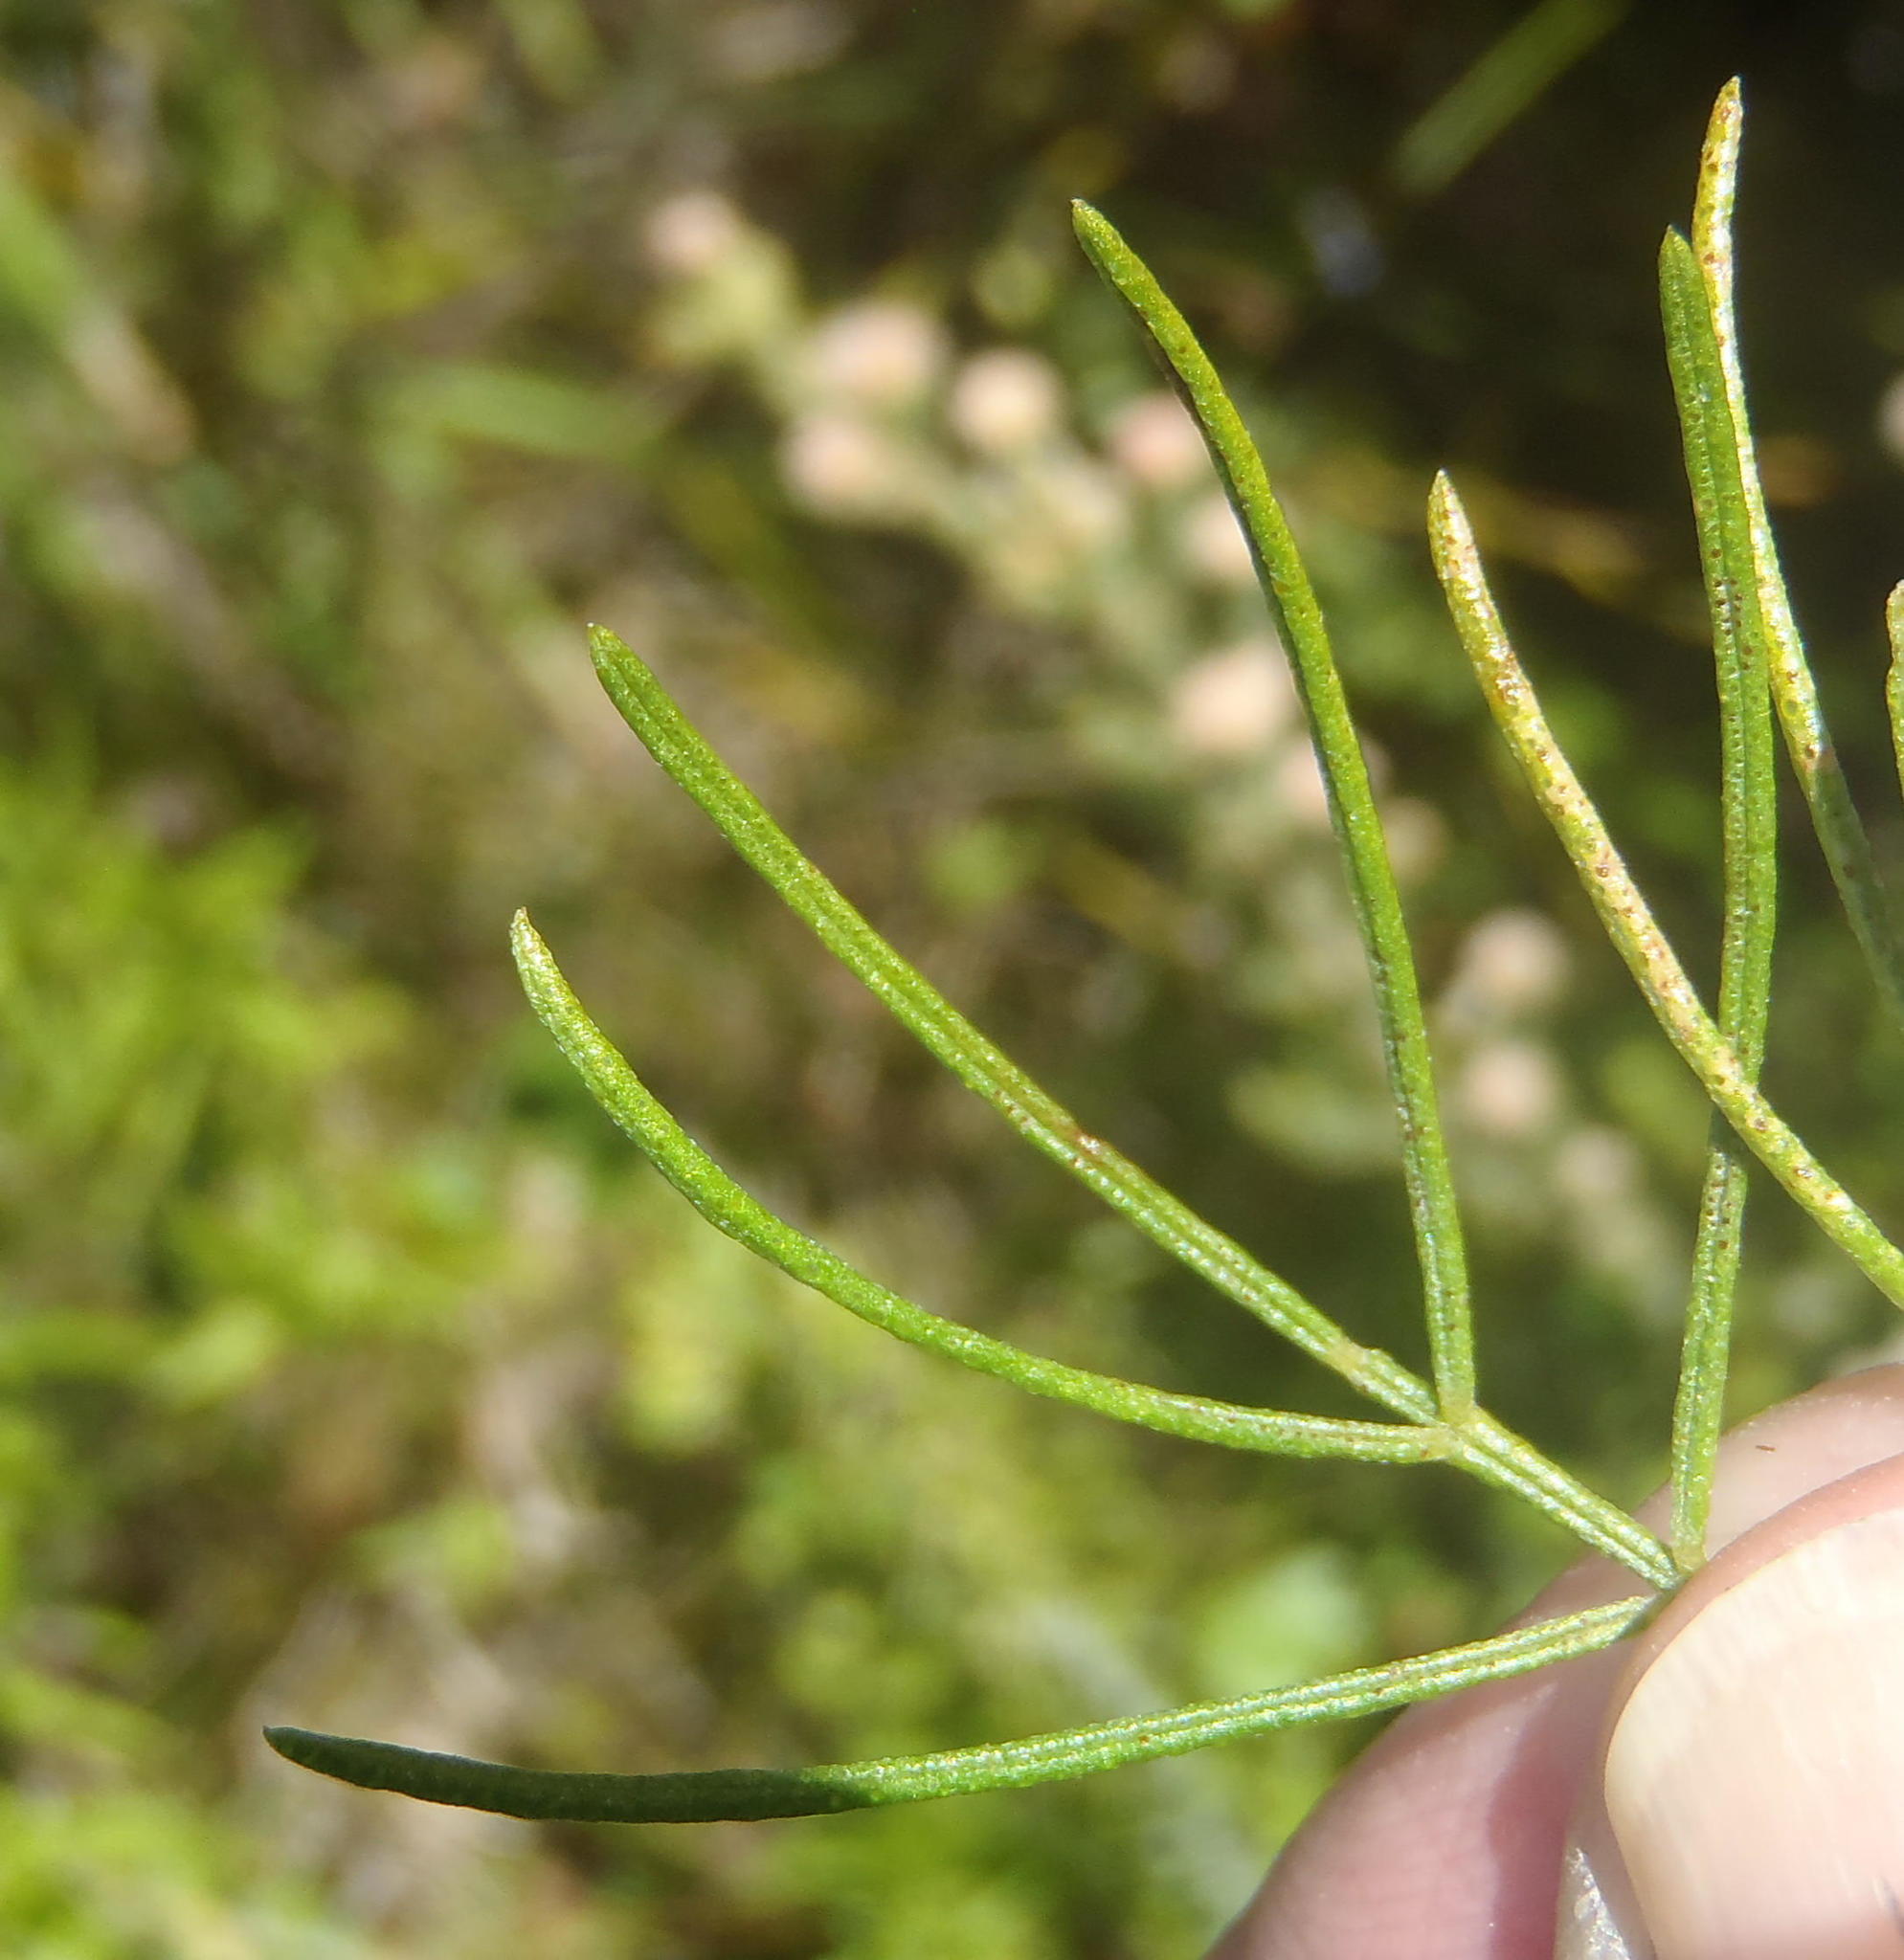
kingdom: Plantae
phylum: Tracheophyta
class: Magnoliopsida
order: Fabales
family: Fabaceae
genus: Psoralea
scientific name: Psoralea speciosa
